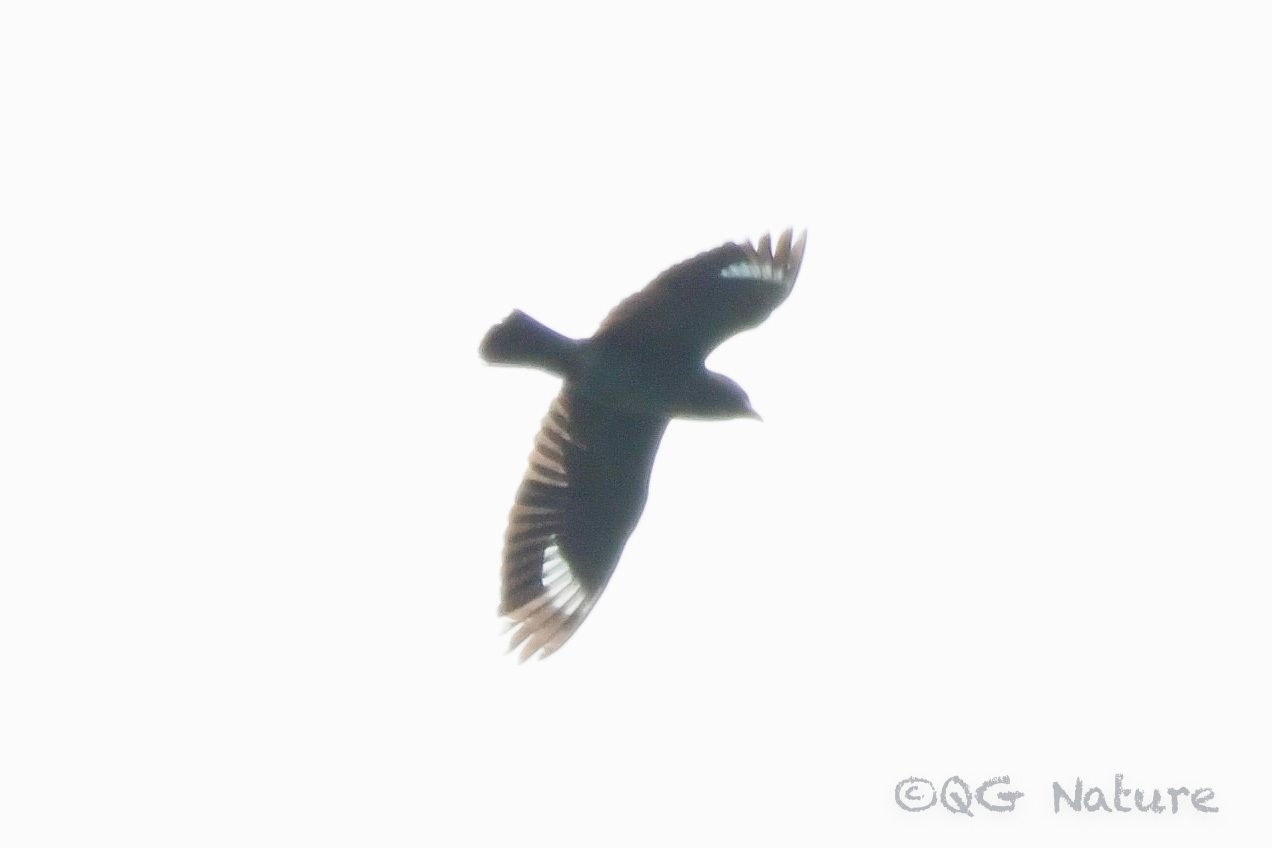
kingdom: Animalia
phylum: Chordata
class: Aves
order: Coraciiformes
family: Coraciidae
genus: Eurystomus
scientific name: Eurystomus orientalis
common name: Oriental dollarbird
